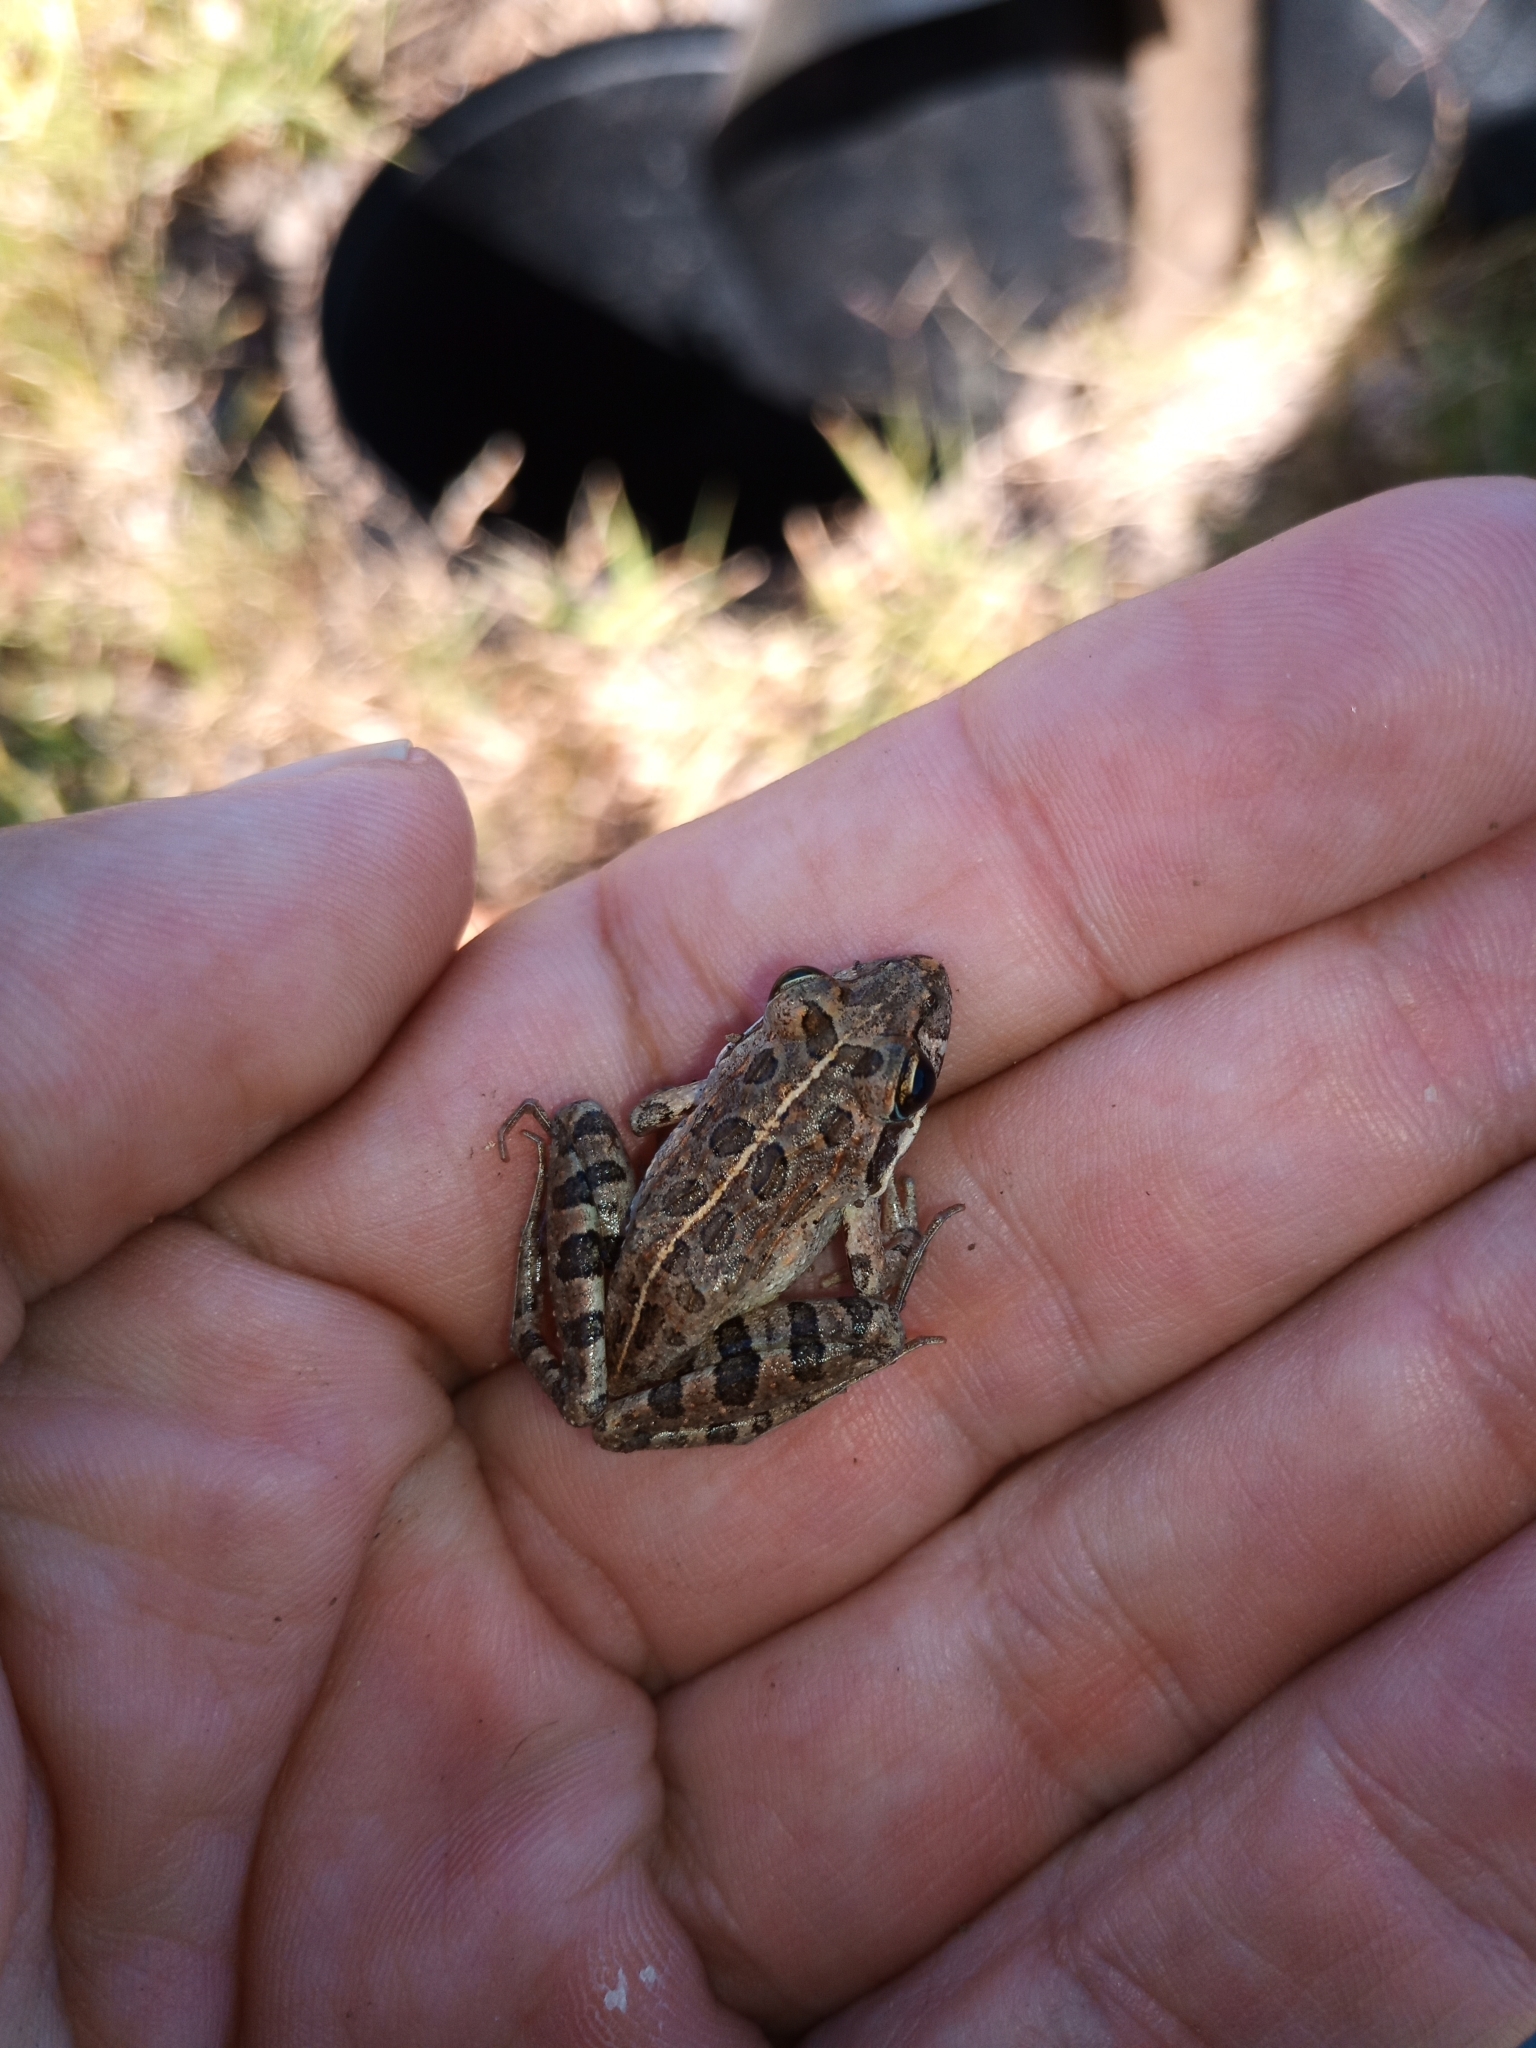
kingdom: Animalia
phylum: Chordata
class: Amphibia
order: Anura
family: Pyxicephalidae
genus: Strongylopus
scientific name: Strongylopus grayii
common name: Gray's stream frog
